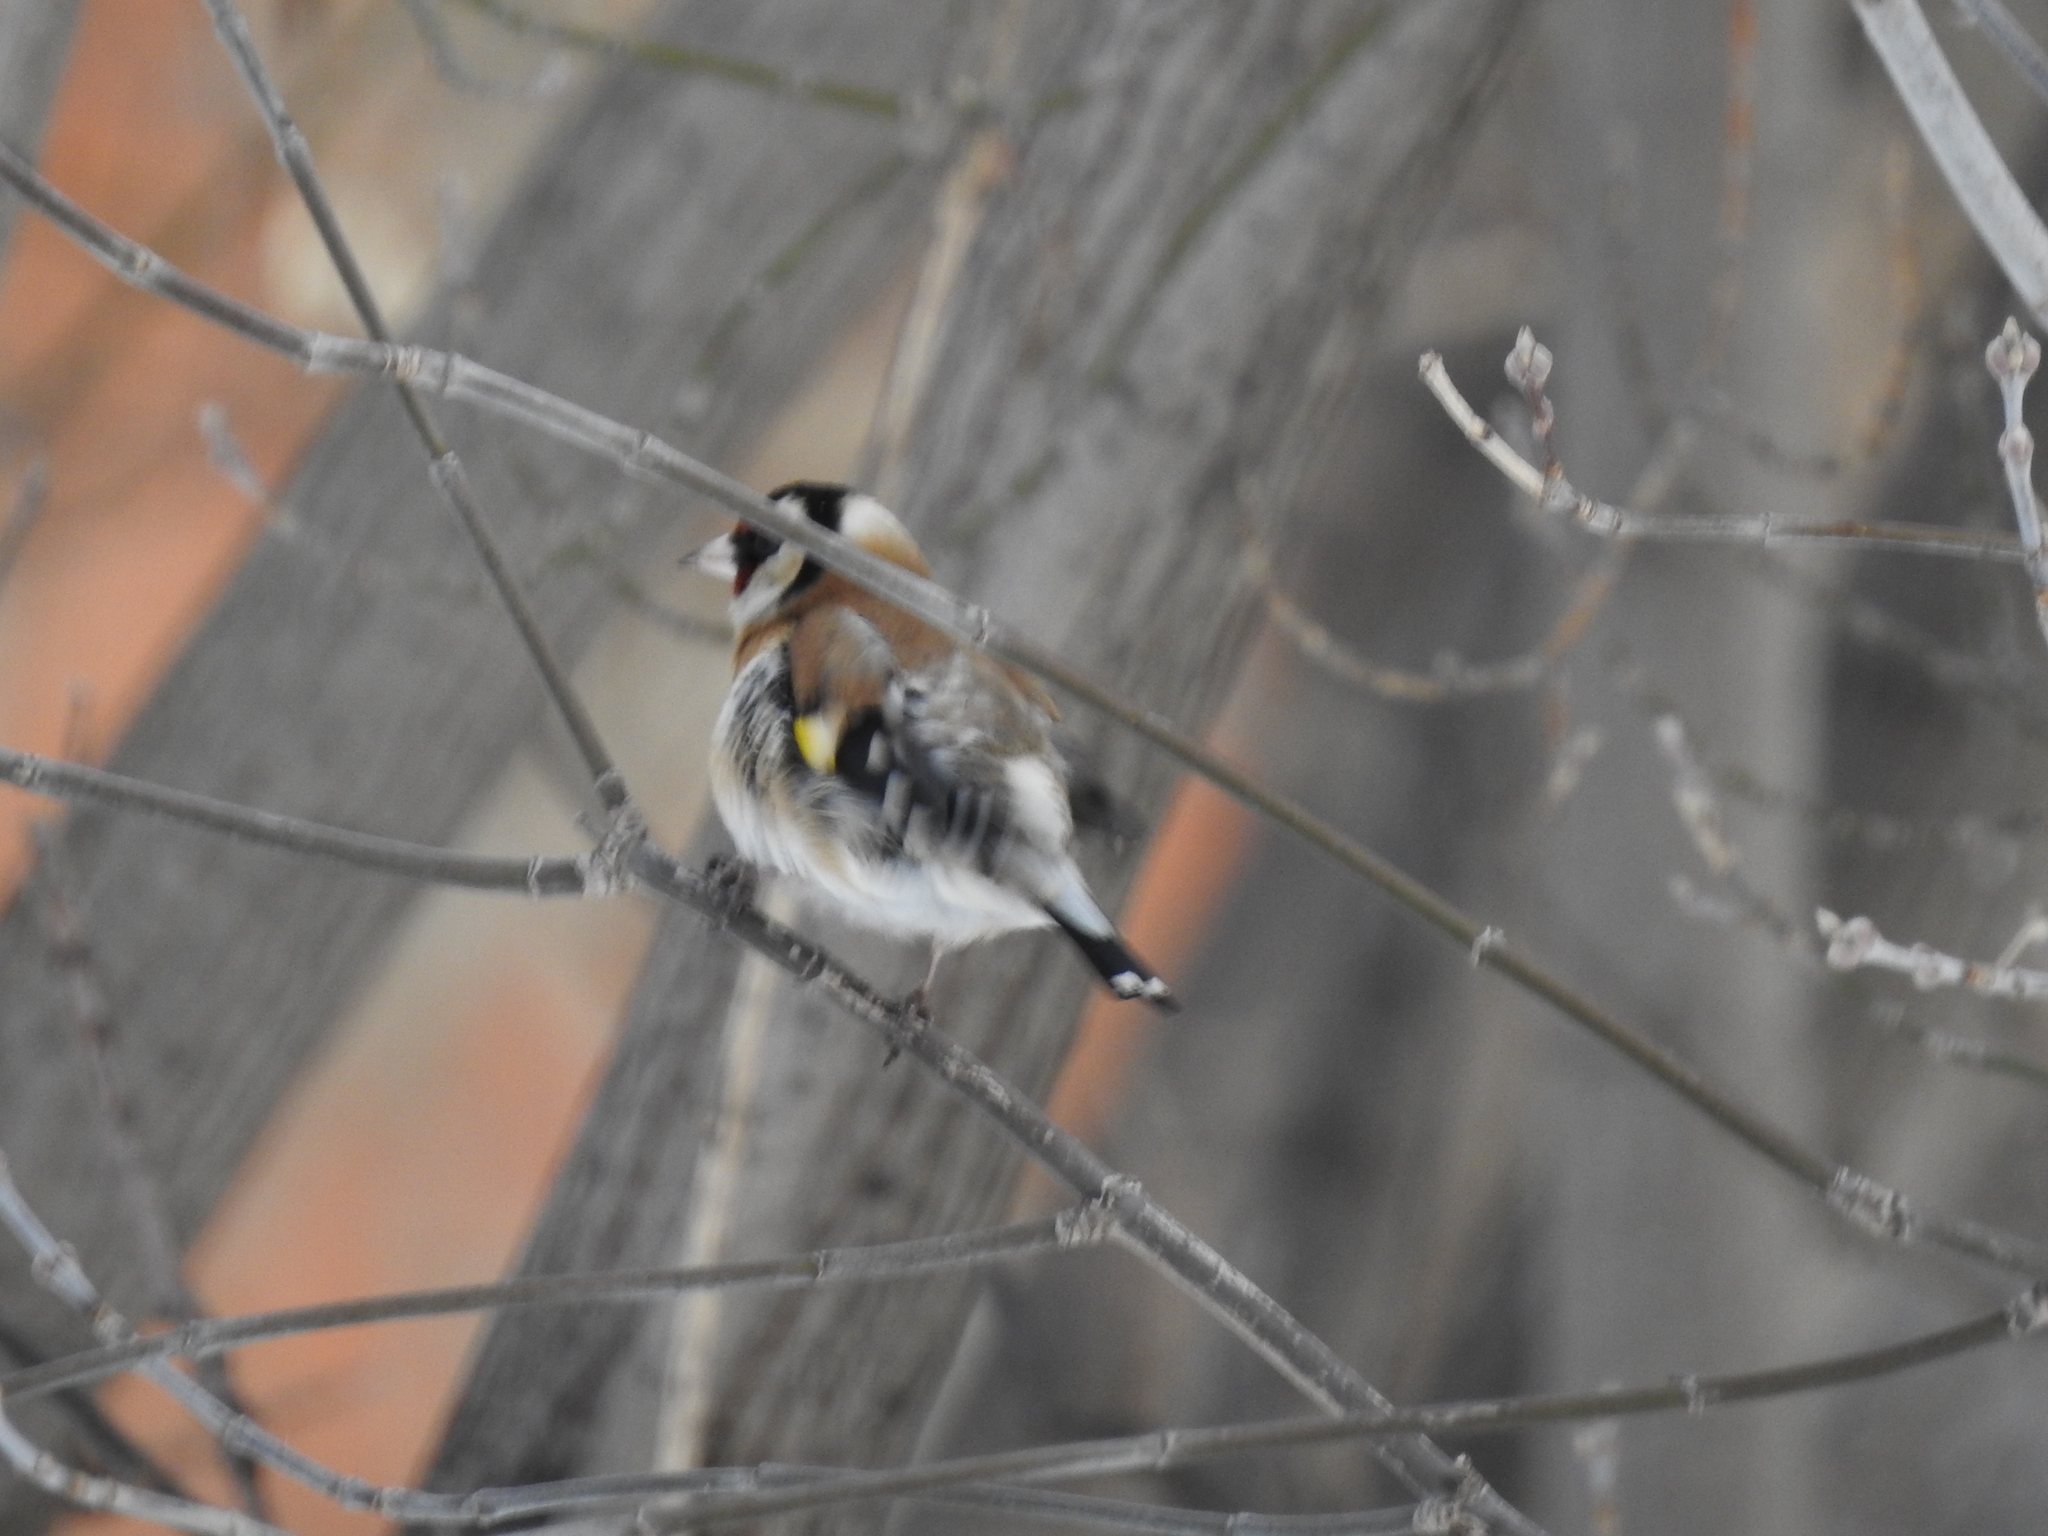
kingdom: Animalia
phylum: Chordata
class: Aves
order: Passeriformes
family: Fringillidae
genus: Carduelis
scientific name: Carduelis carduelis
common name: European goldfinch
